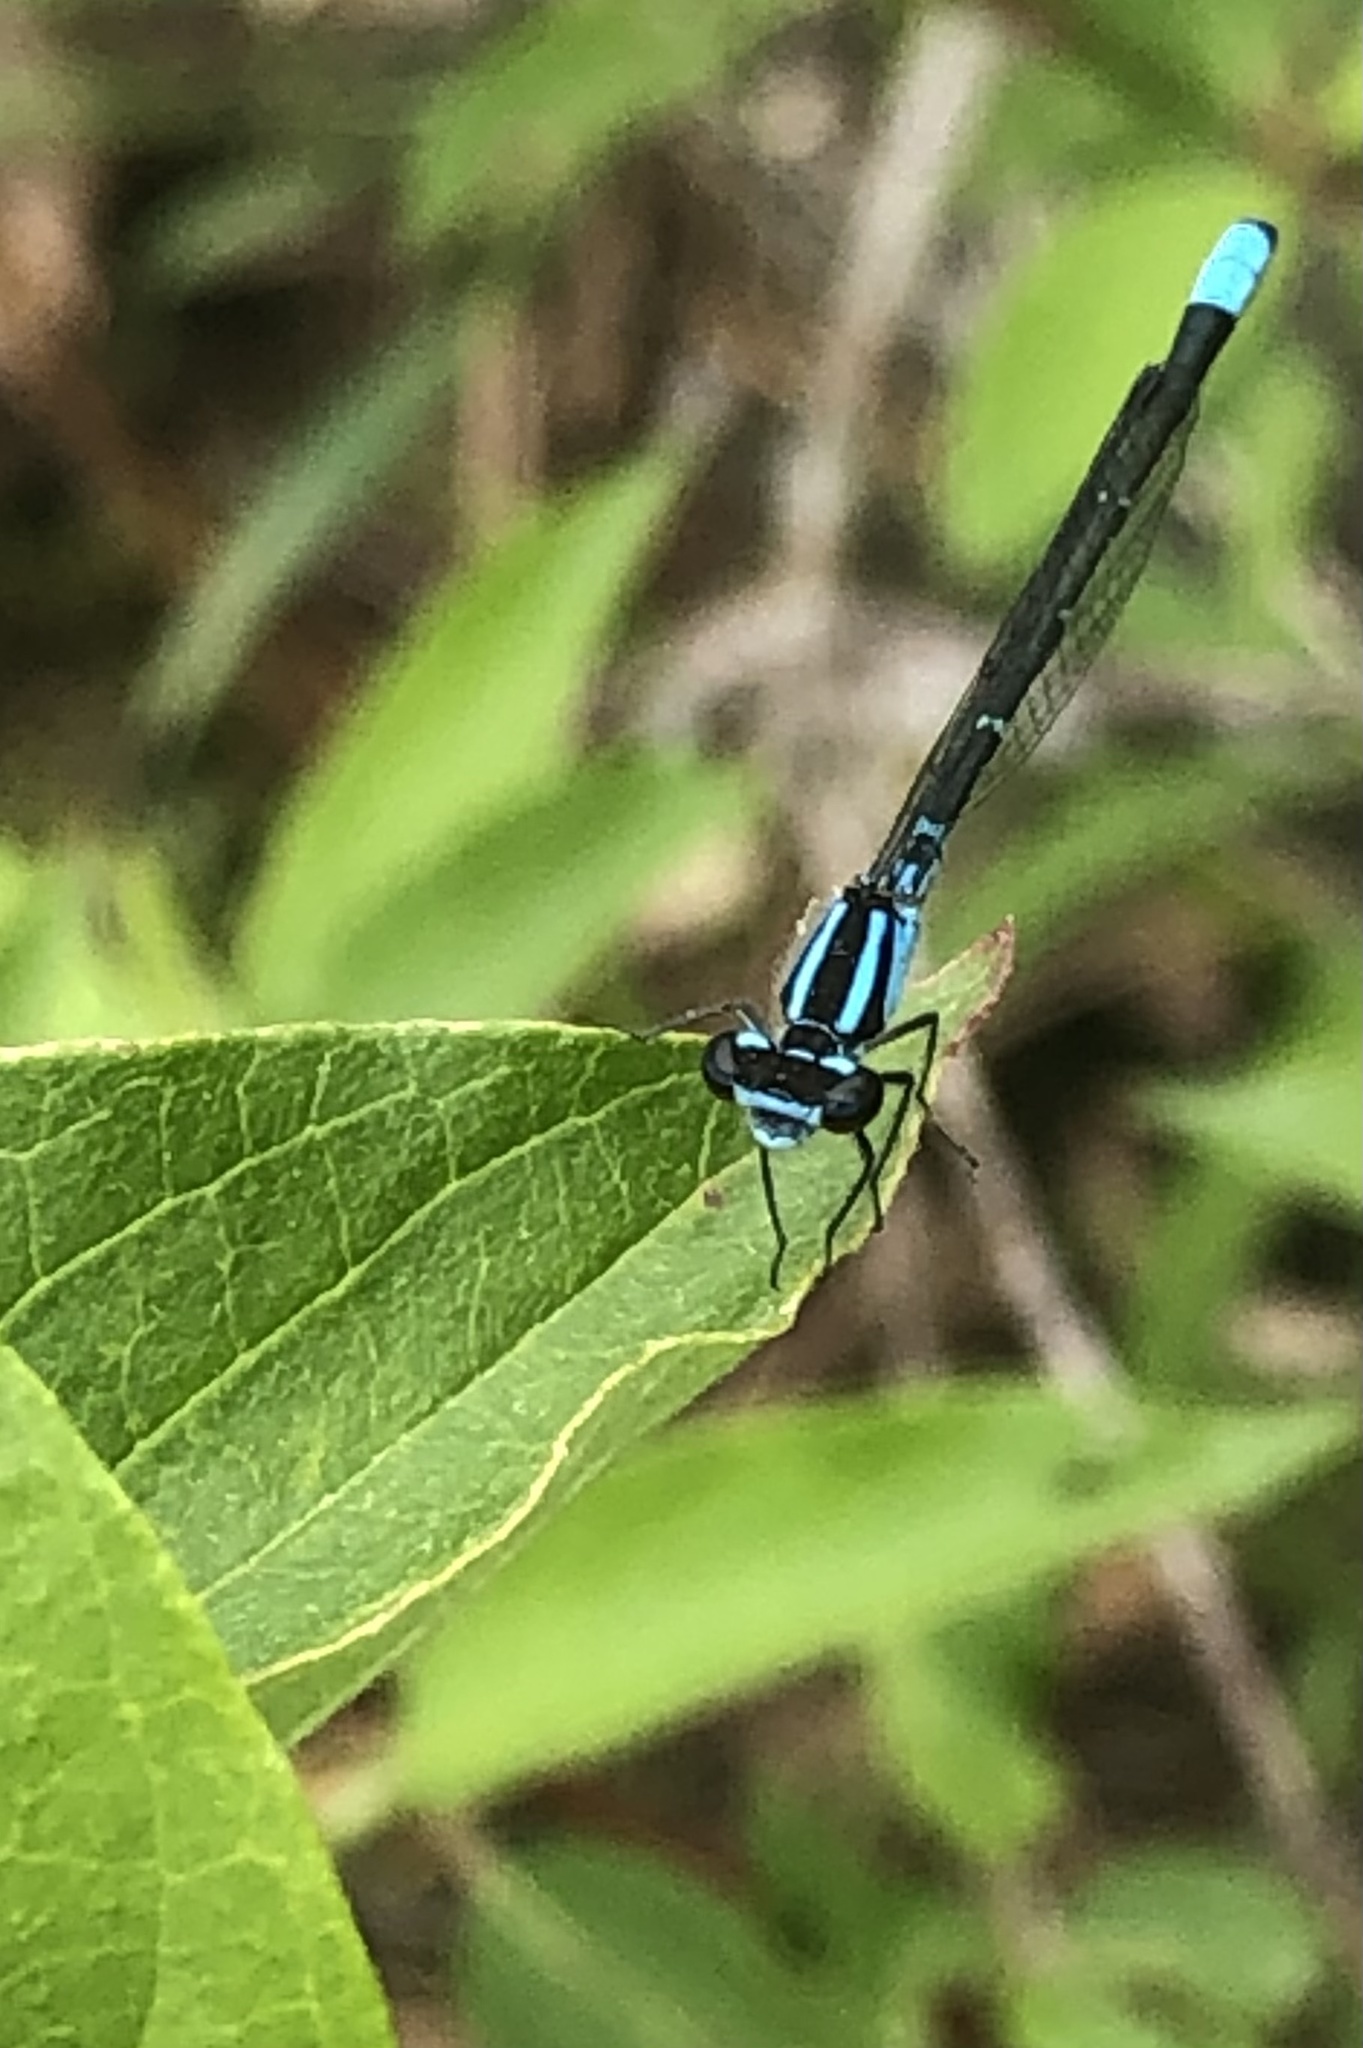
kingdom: Animalia
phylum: Arthropoda
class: Insecta
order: Odonata
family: Coenagrionidae
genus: Enallagma
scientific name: Enallagma geminatum
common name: Skimming bluet
